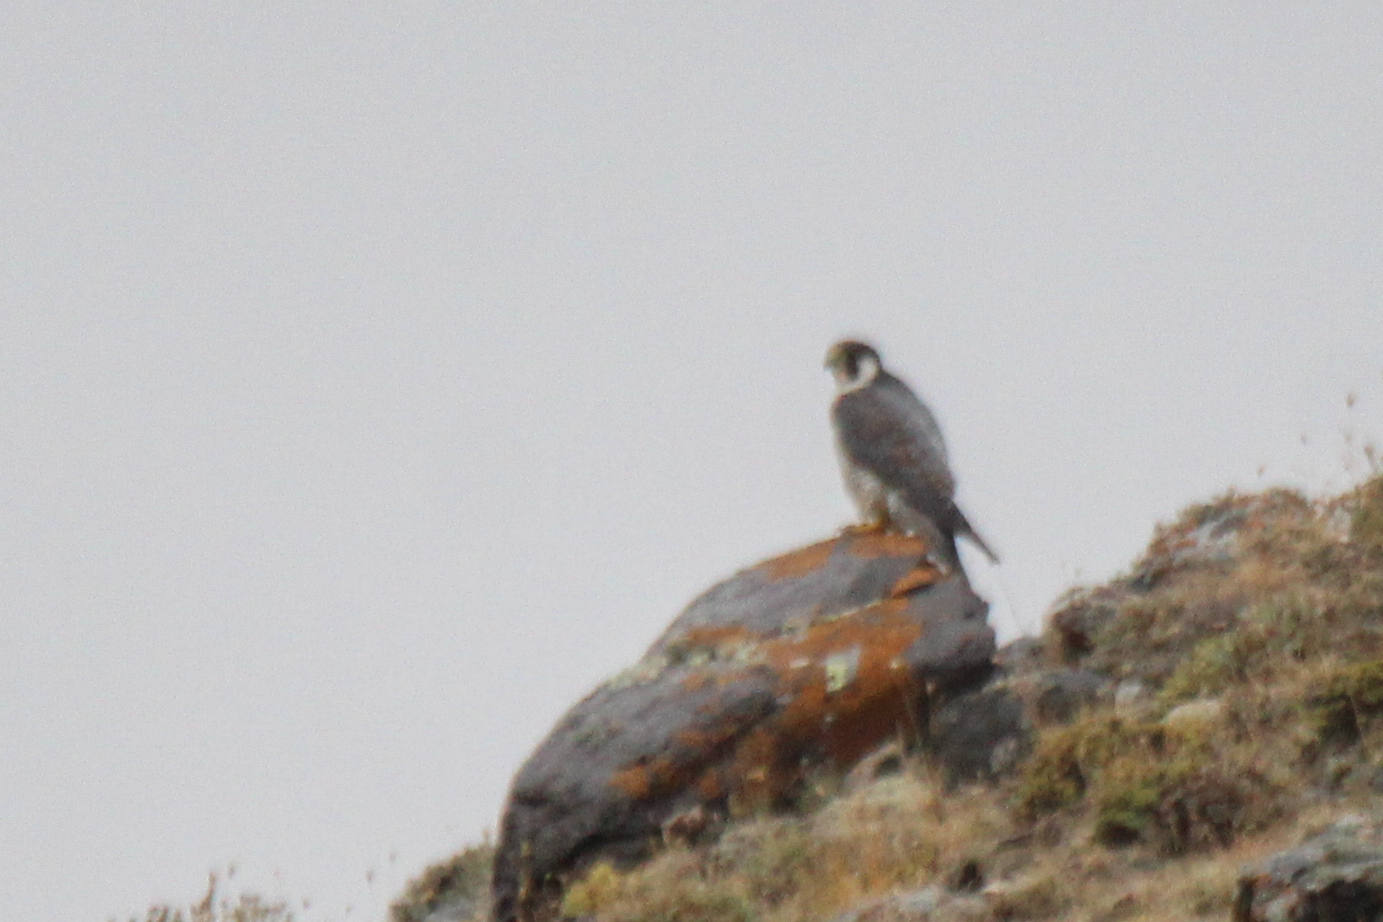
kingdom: Animalia
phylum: Chordata
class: Aves
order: Falconiformes
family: Falconidae
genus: Falco
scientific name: Falco peregrinus
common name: Peregrine falcon
